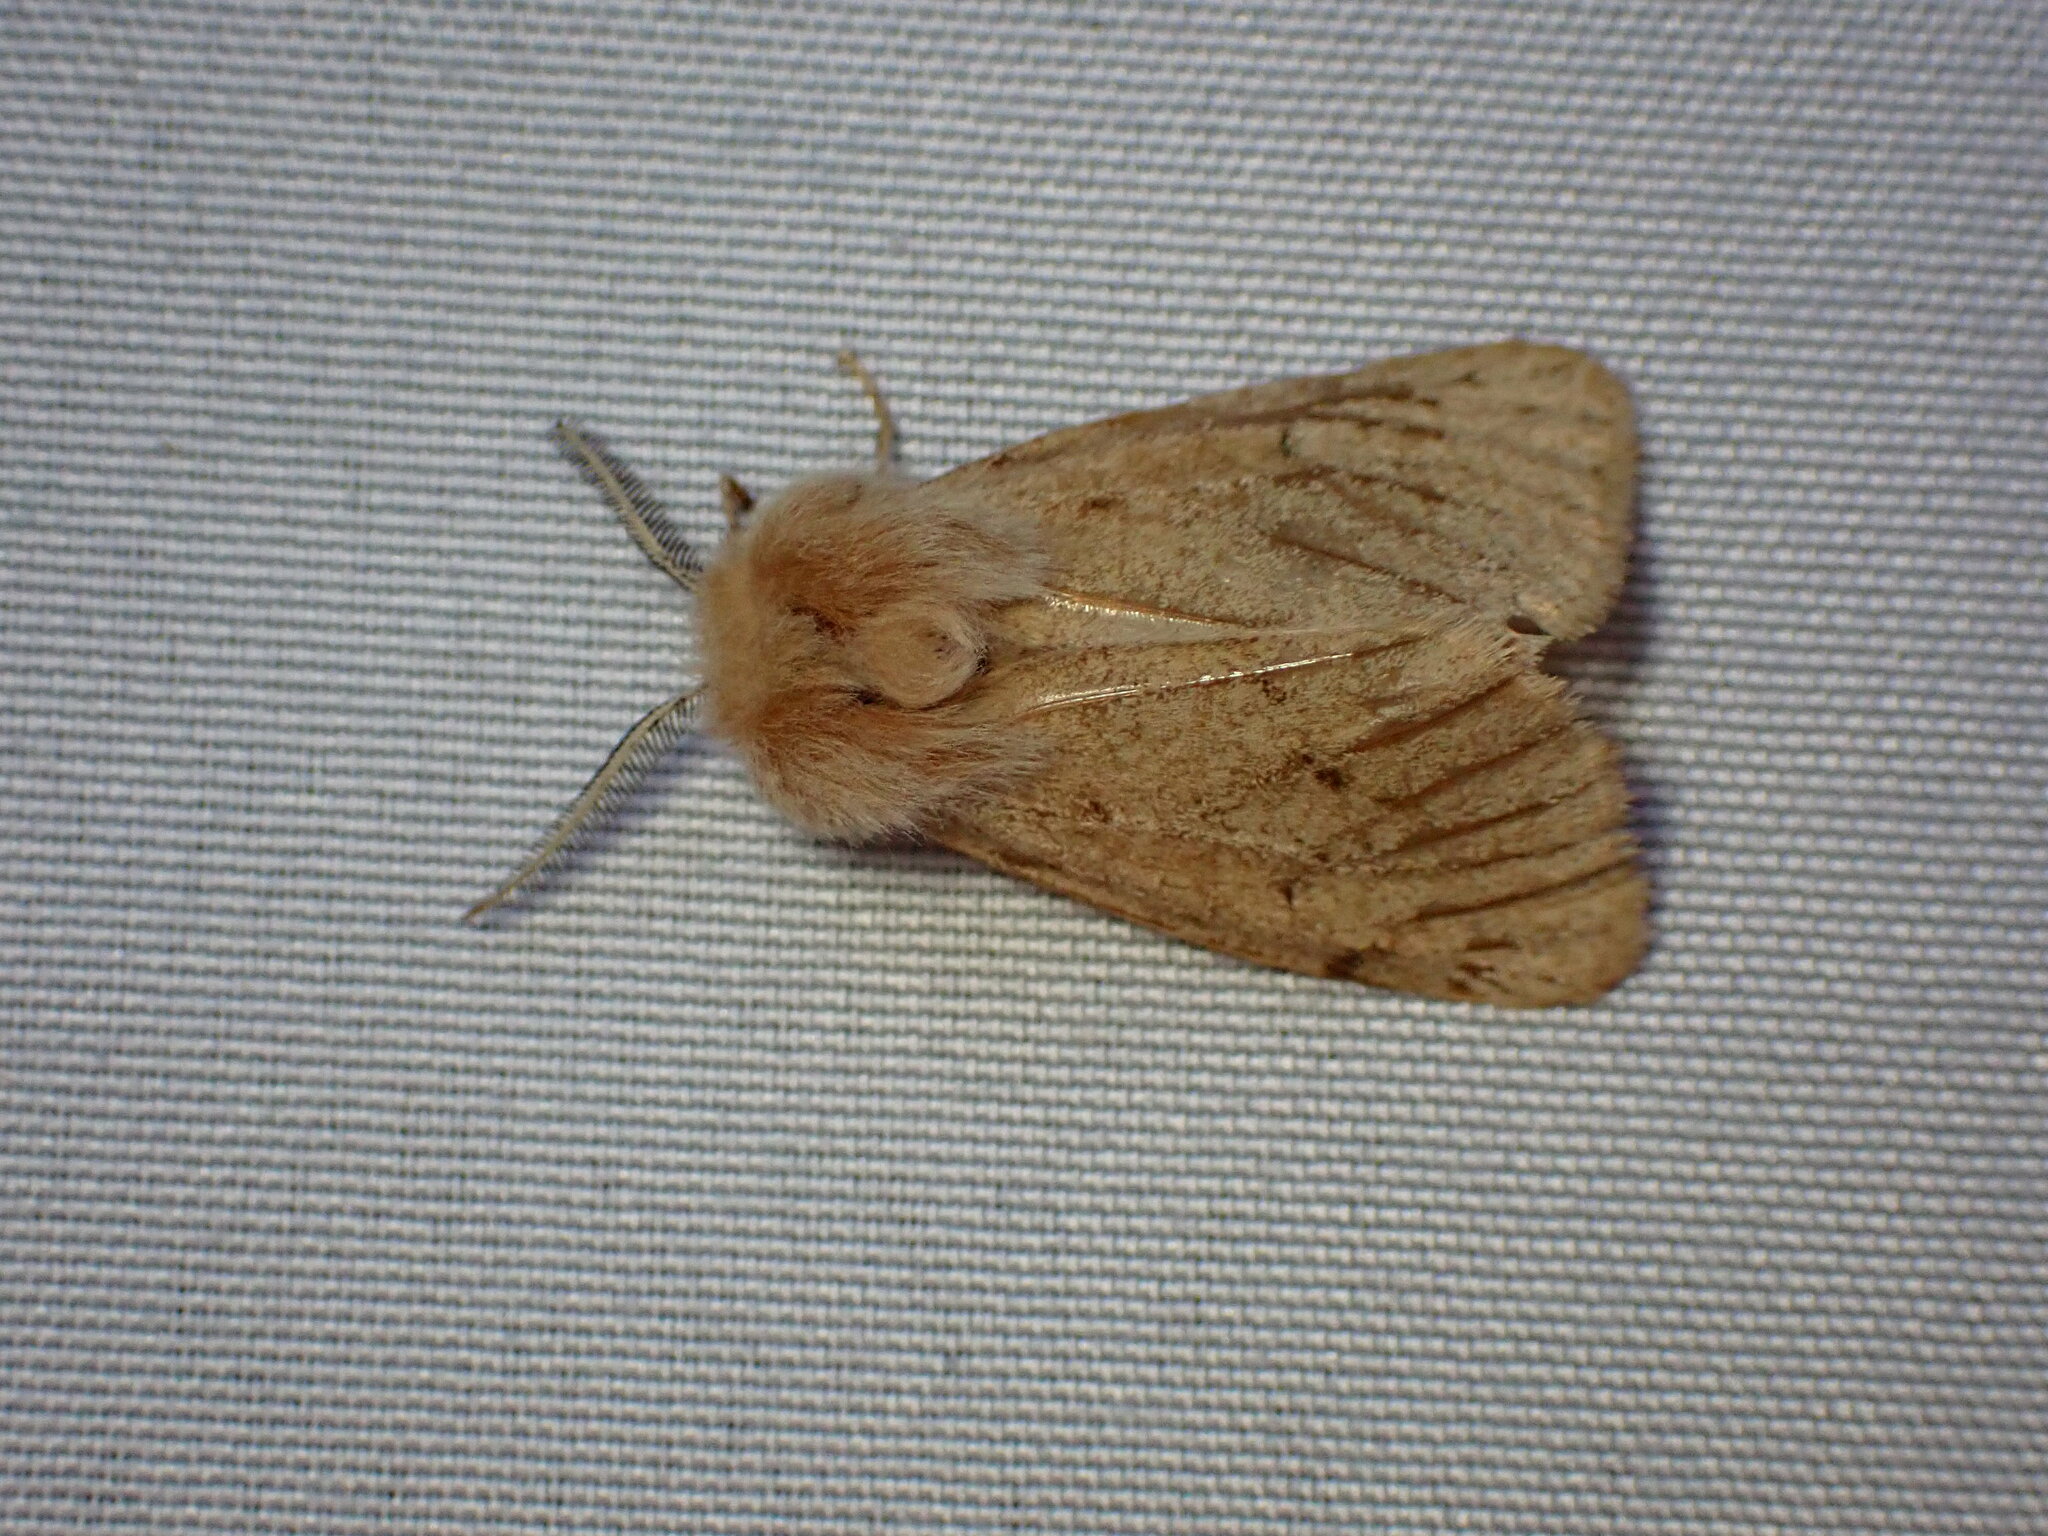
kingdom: Animalia
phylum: Arthropoda
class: Insecta
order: Lepidoptera
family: Erebidae
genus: Spilosoma
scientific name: Spilosoma vagans
